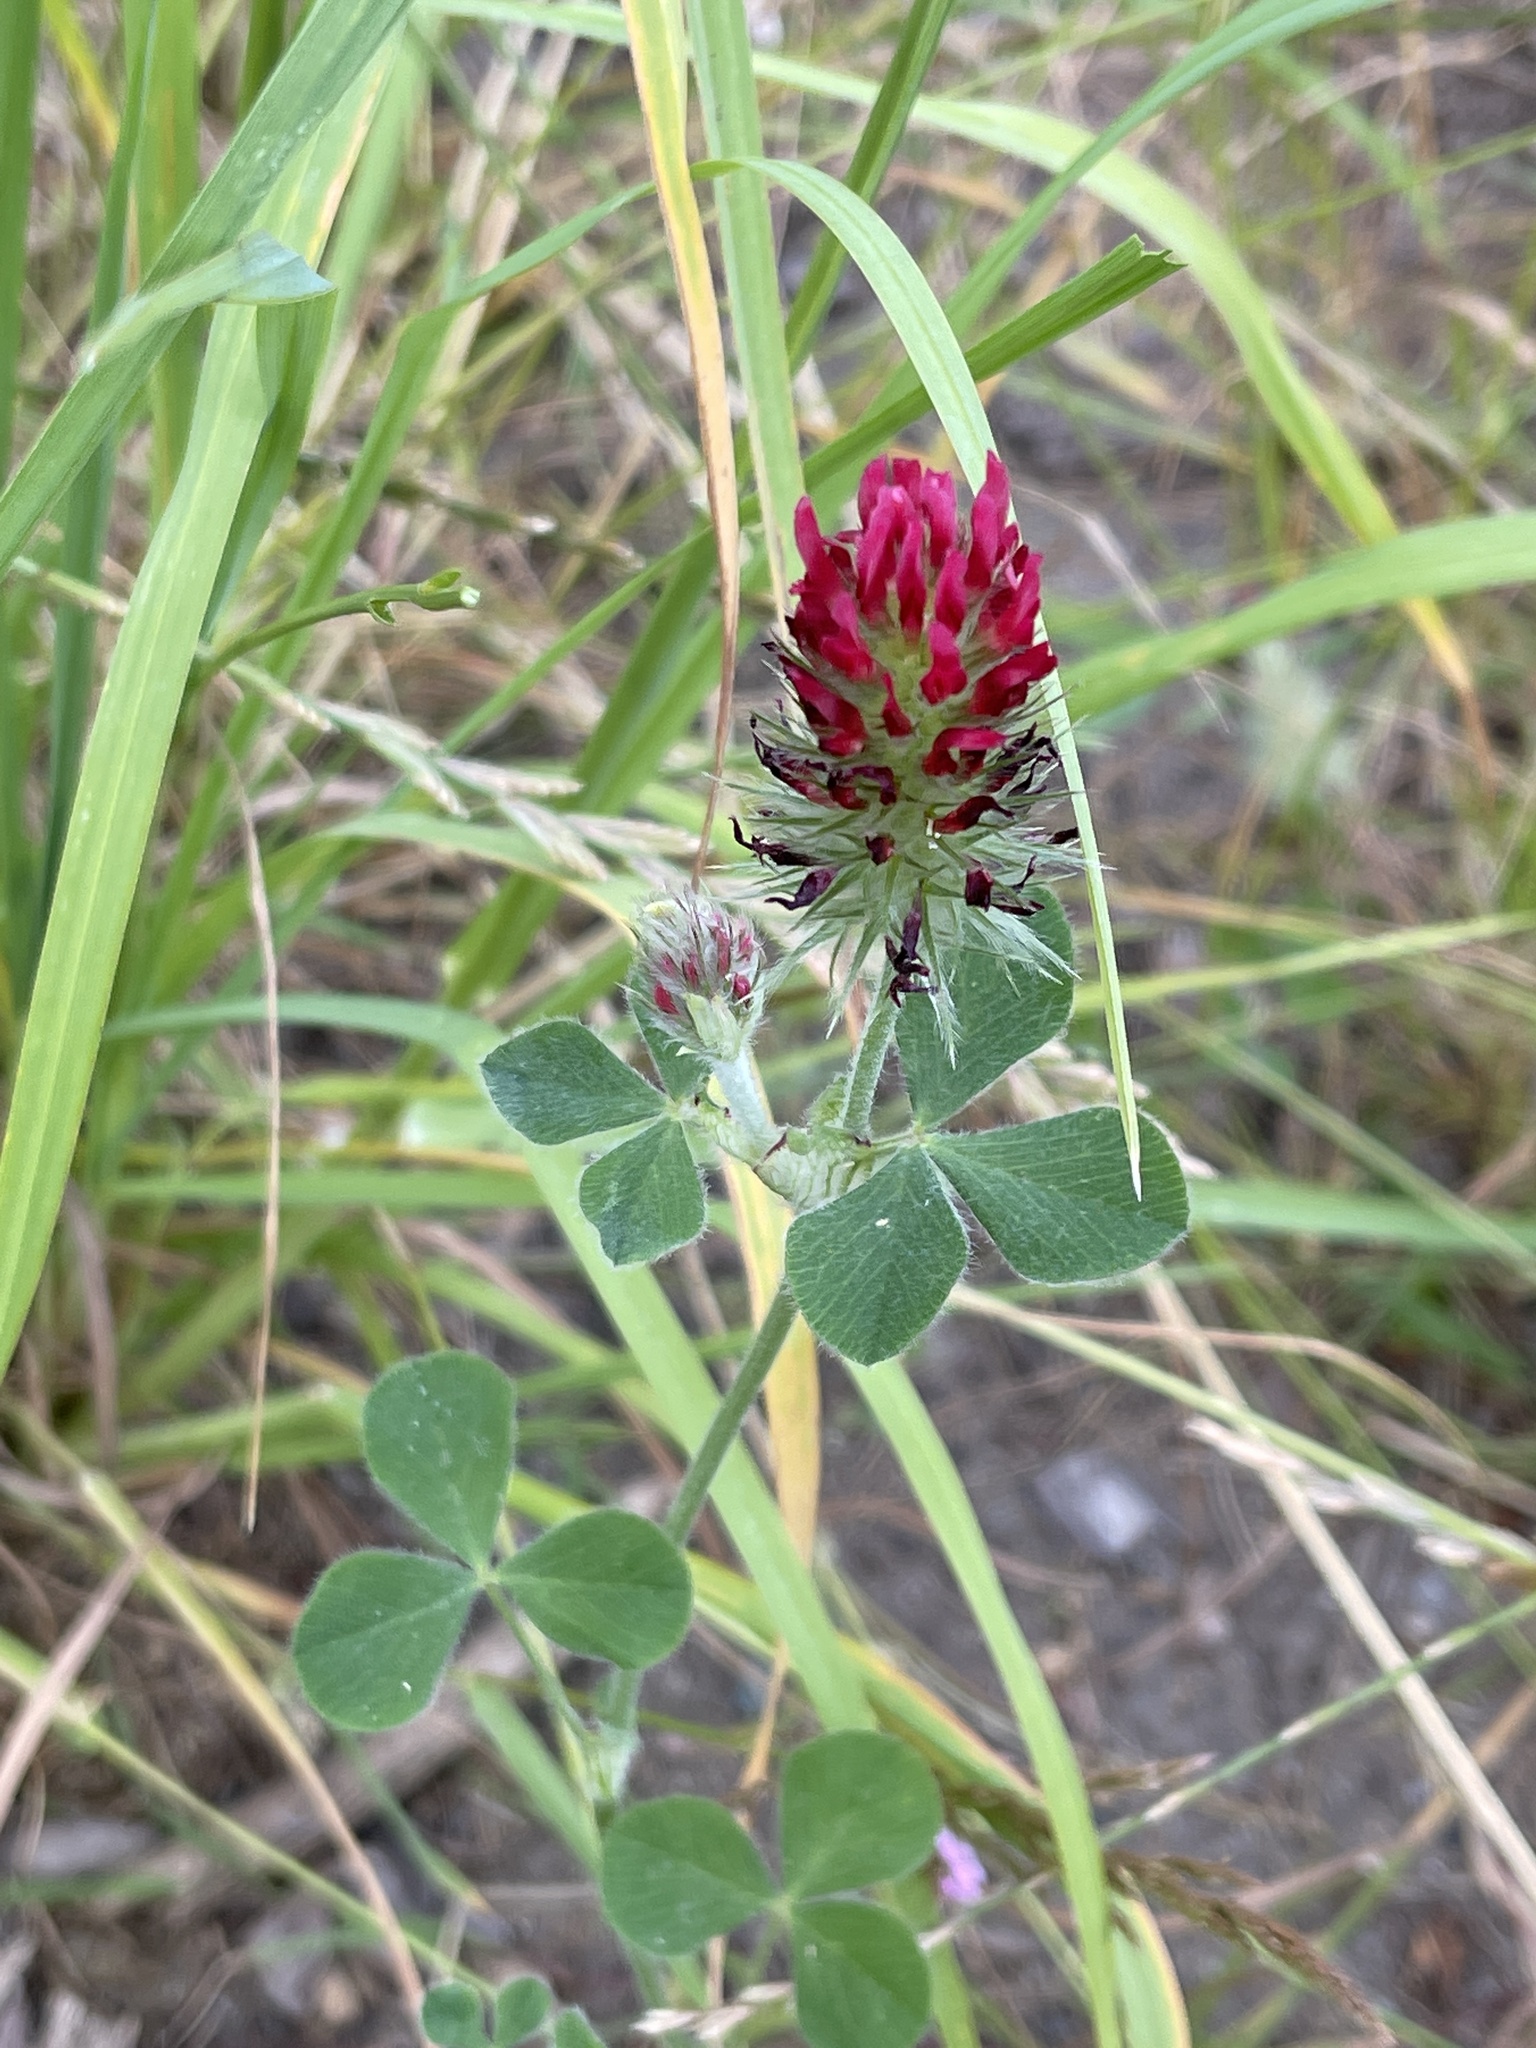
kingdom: Plantae
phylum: Tracheophyta
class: Magnoliopsida
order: Fabales
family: Fabaceae
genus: Trifolium
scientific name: Trifolium incarnatum
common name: Crimson clover
